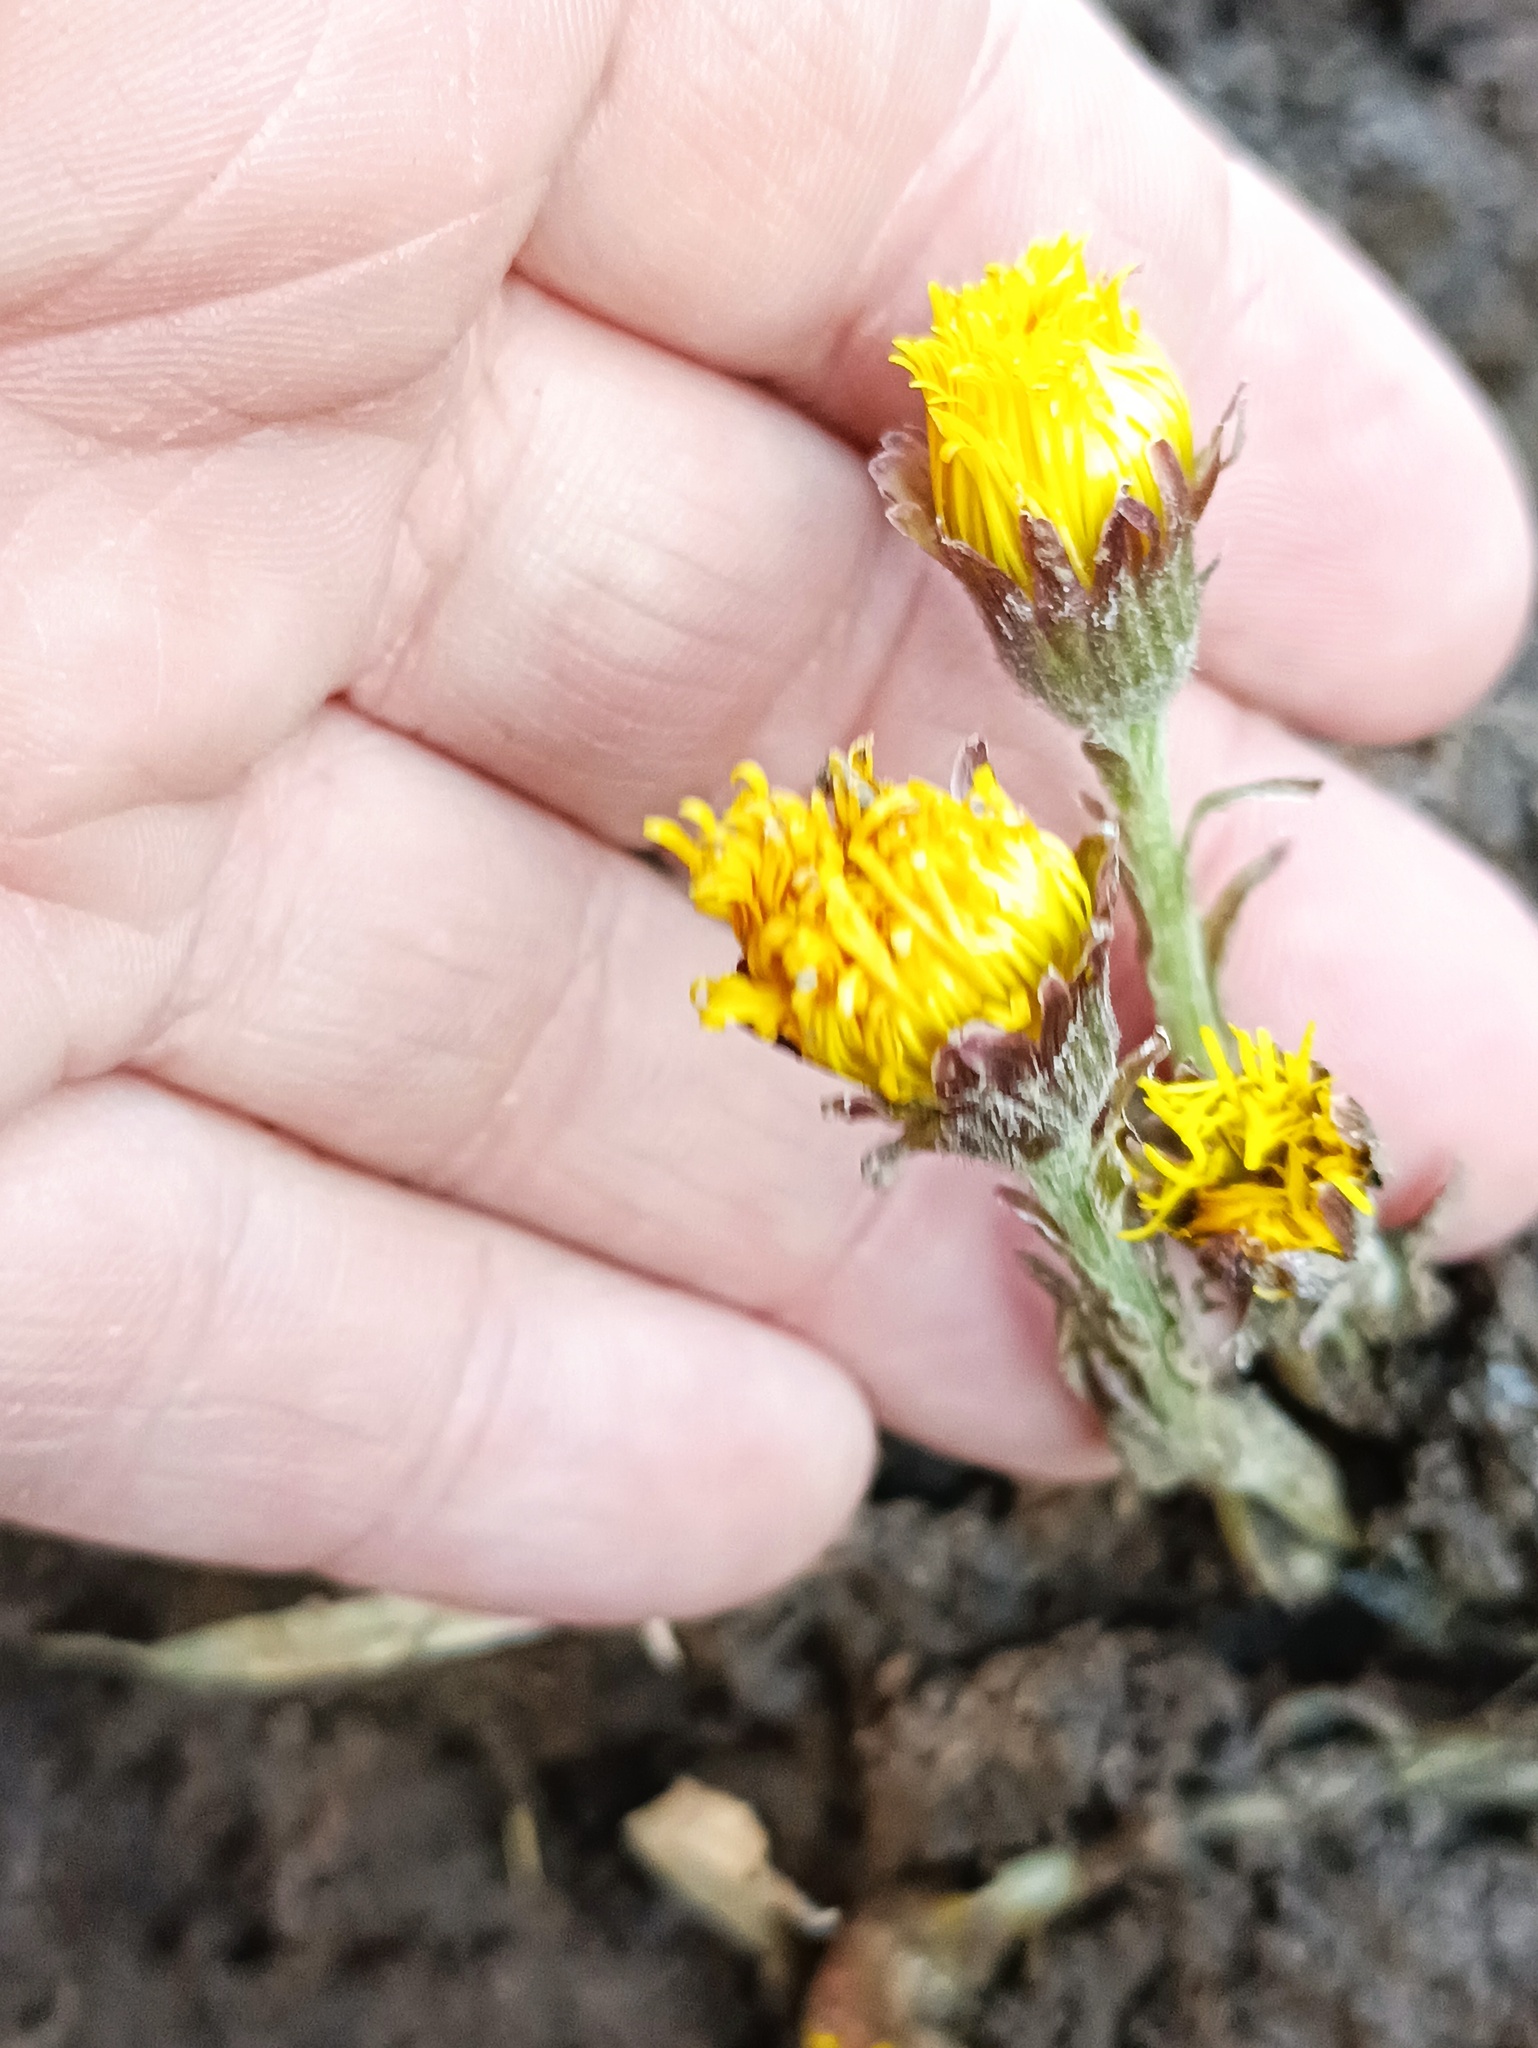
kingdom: Plantae
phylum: Tracheophyta
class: Magnoliopsida
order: Asterales
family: Asteraceae
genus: Tussilago
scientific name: Tussilago farfara
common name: Coltsfoot
